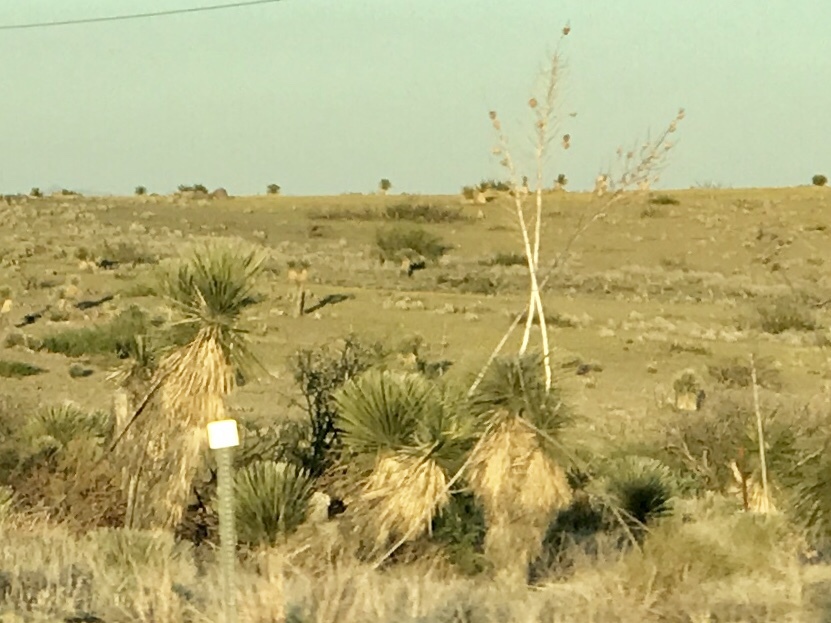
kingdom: Plantae
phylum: Tracheophyta
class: Liliopsida
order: Asparagales
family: Asparagaceae
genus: Yucca
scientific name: Yucca elata
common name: Palmella
